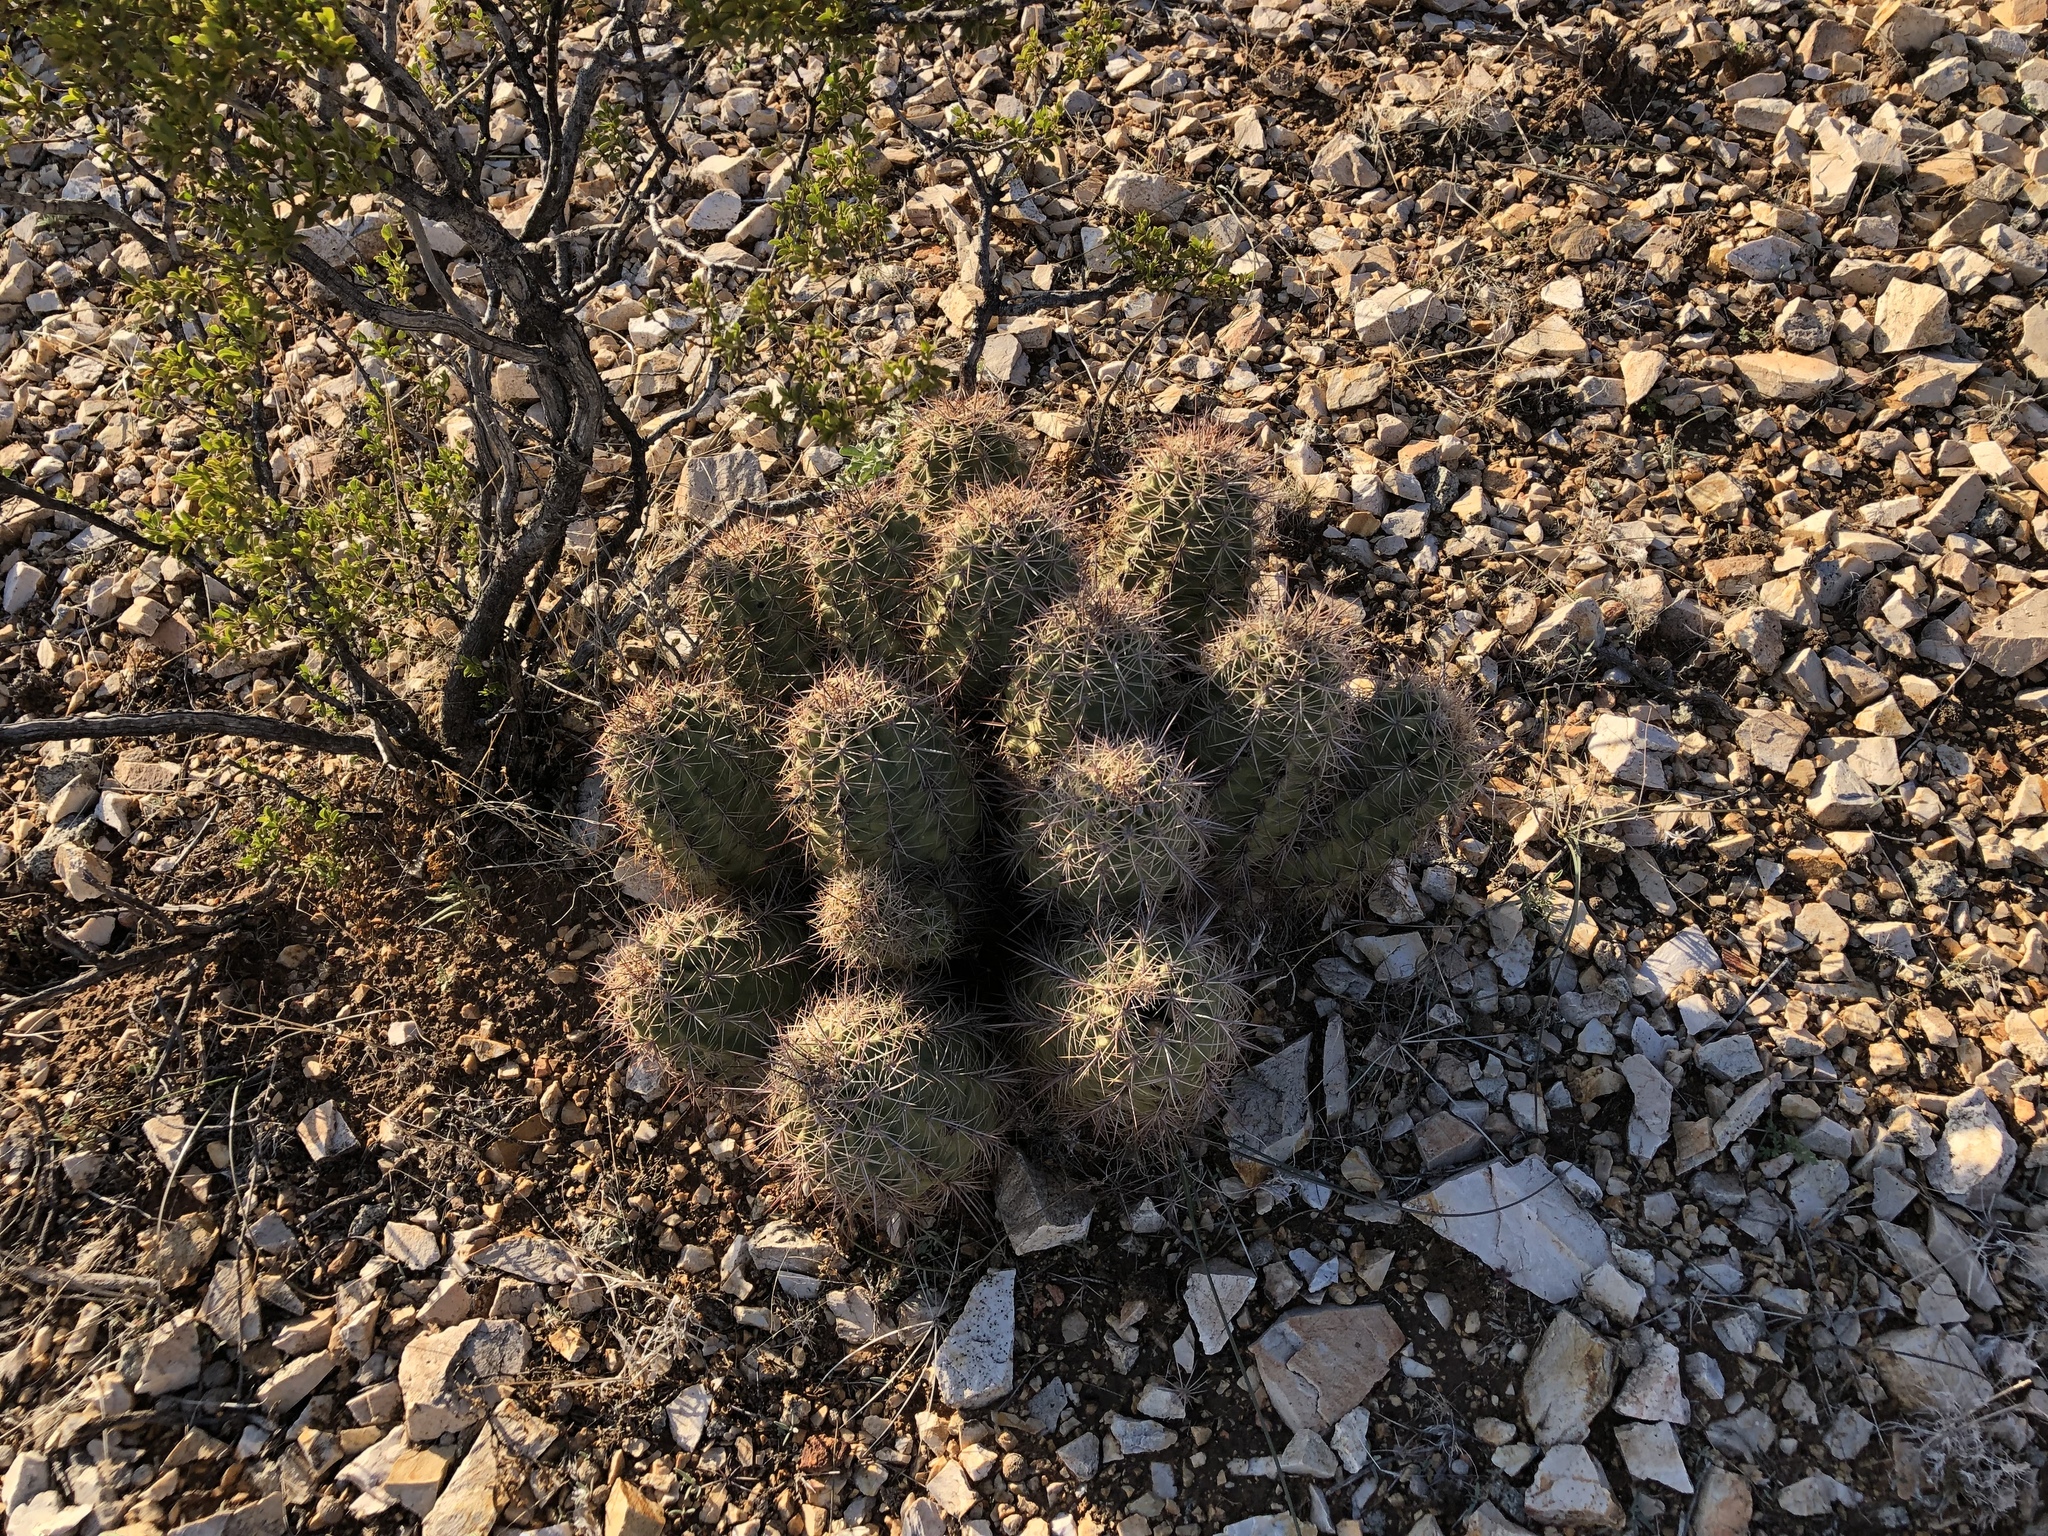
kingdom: Plantae
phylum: Tracheophyta
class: Magnoliopsida
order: Caryophyllales
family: Cactaceae
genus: Echinocereus
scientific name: Echinocereus coccineus
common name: Scarlet hedgehog cactus
